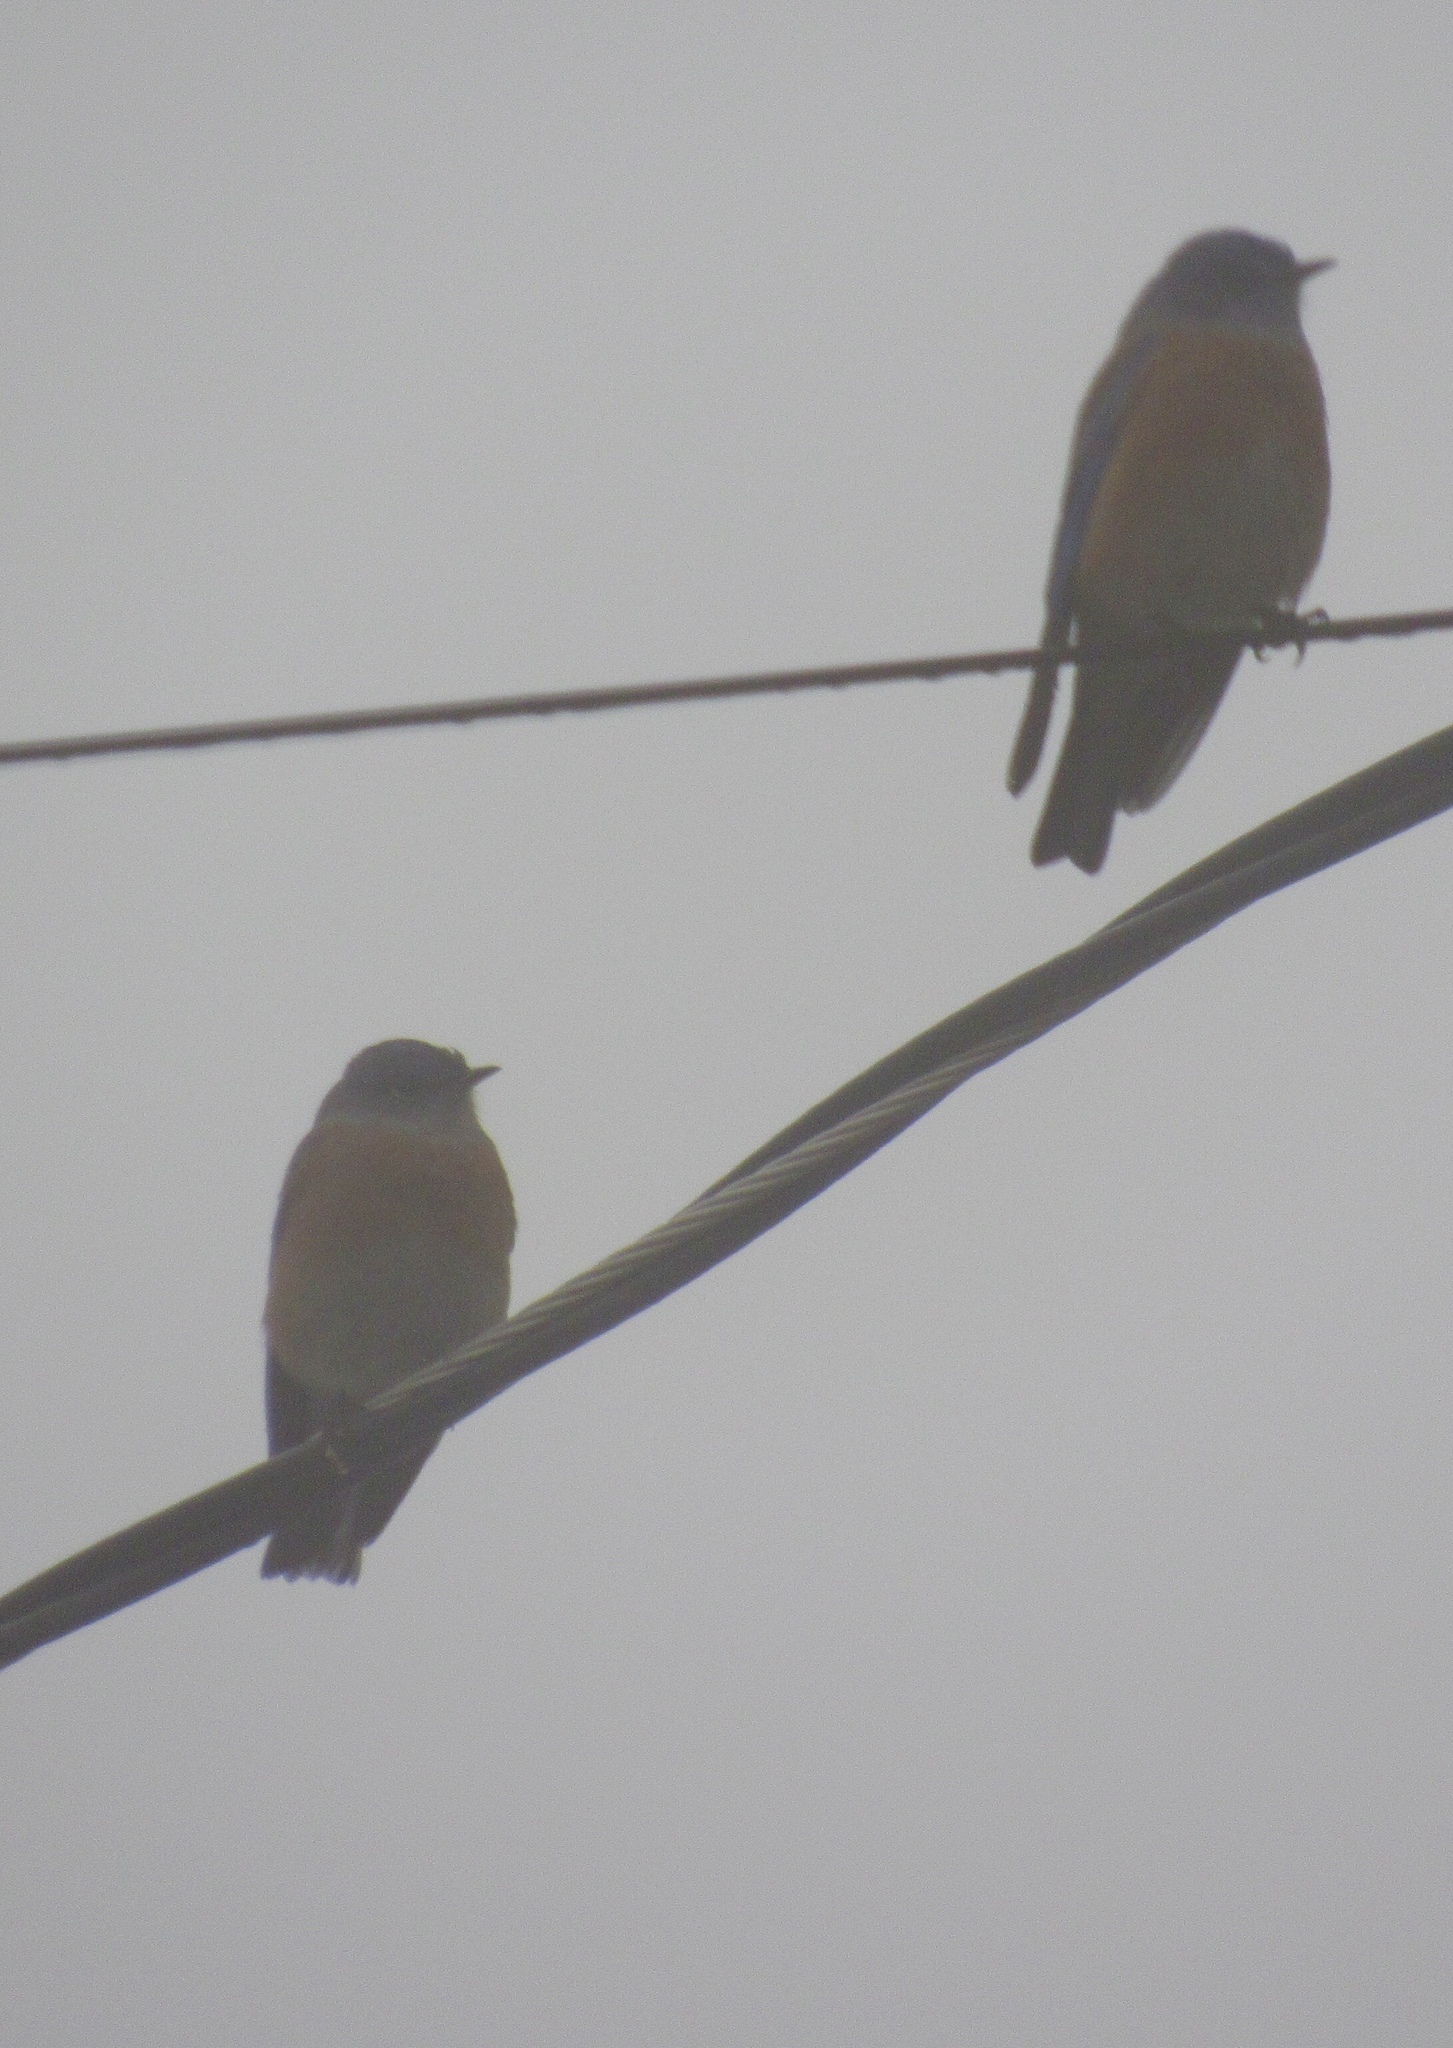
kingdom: Animalia
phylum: Chordata
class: Aves
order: Passeriformes
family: Turdidae
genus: Sialia
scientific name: Sialia mexicana
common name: Western bluebird
